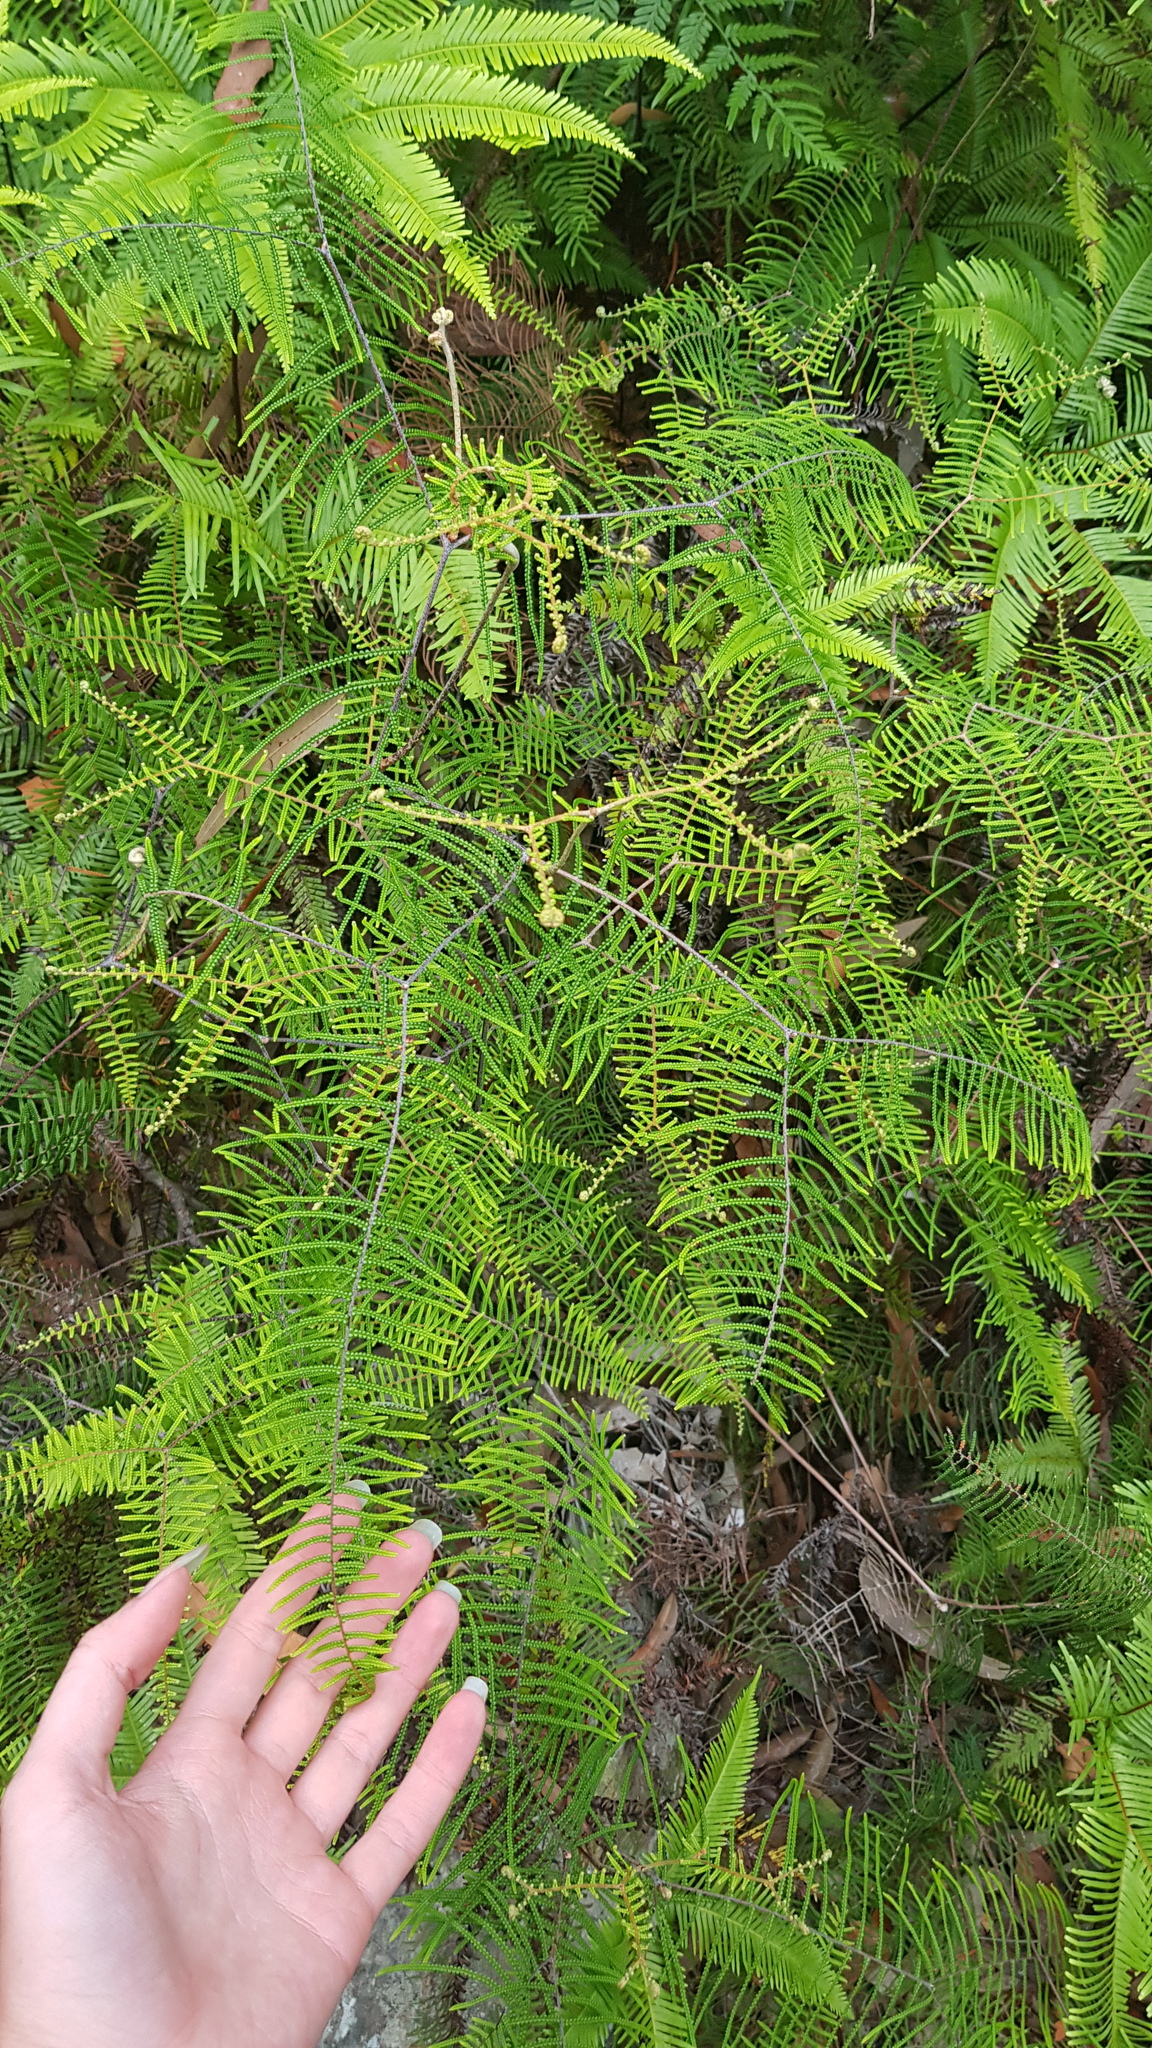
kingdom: Plantae
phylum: Tracheophyta
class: Polypodiopsida
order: Gleicheniales
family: Gleicheniaceae
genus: Gleichenia
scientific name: Gleichenia dicarpa
